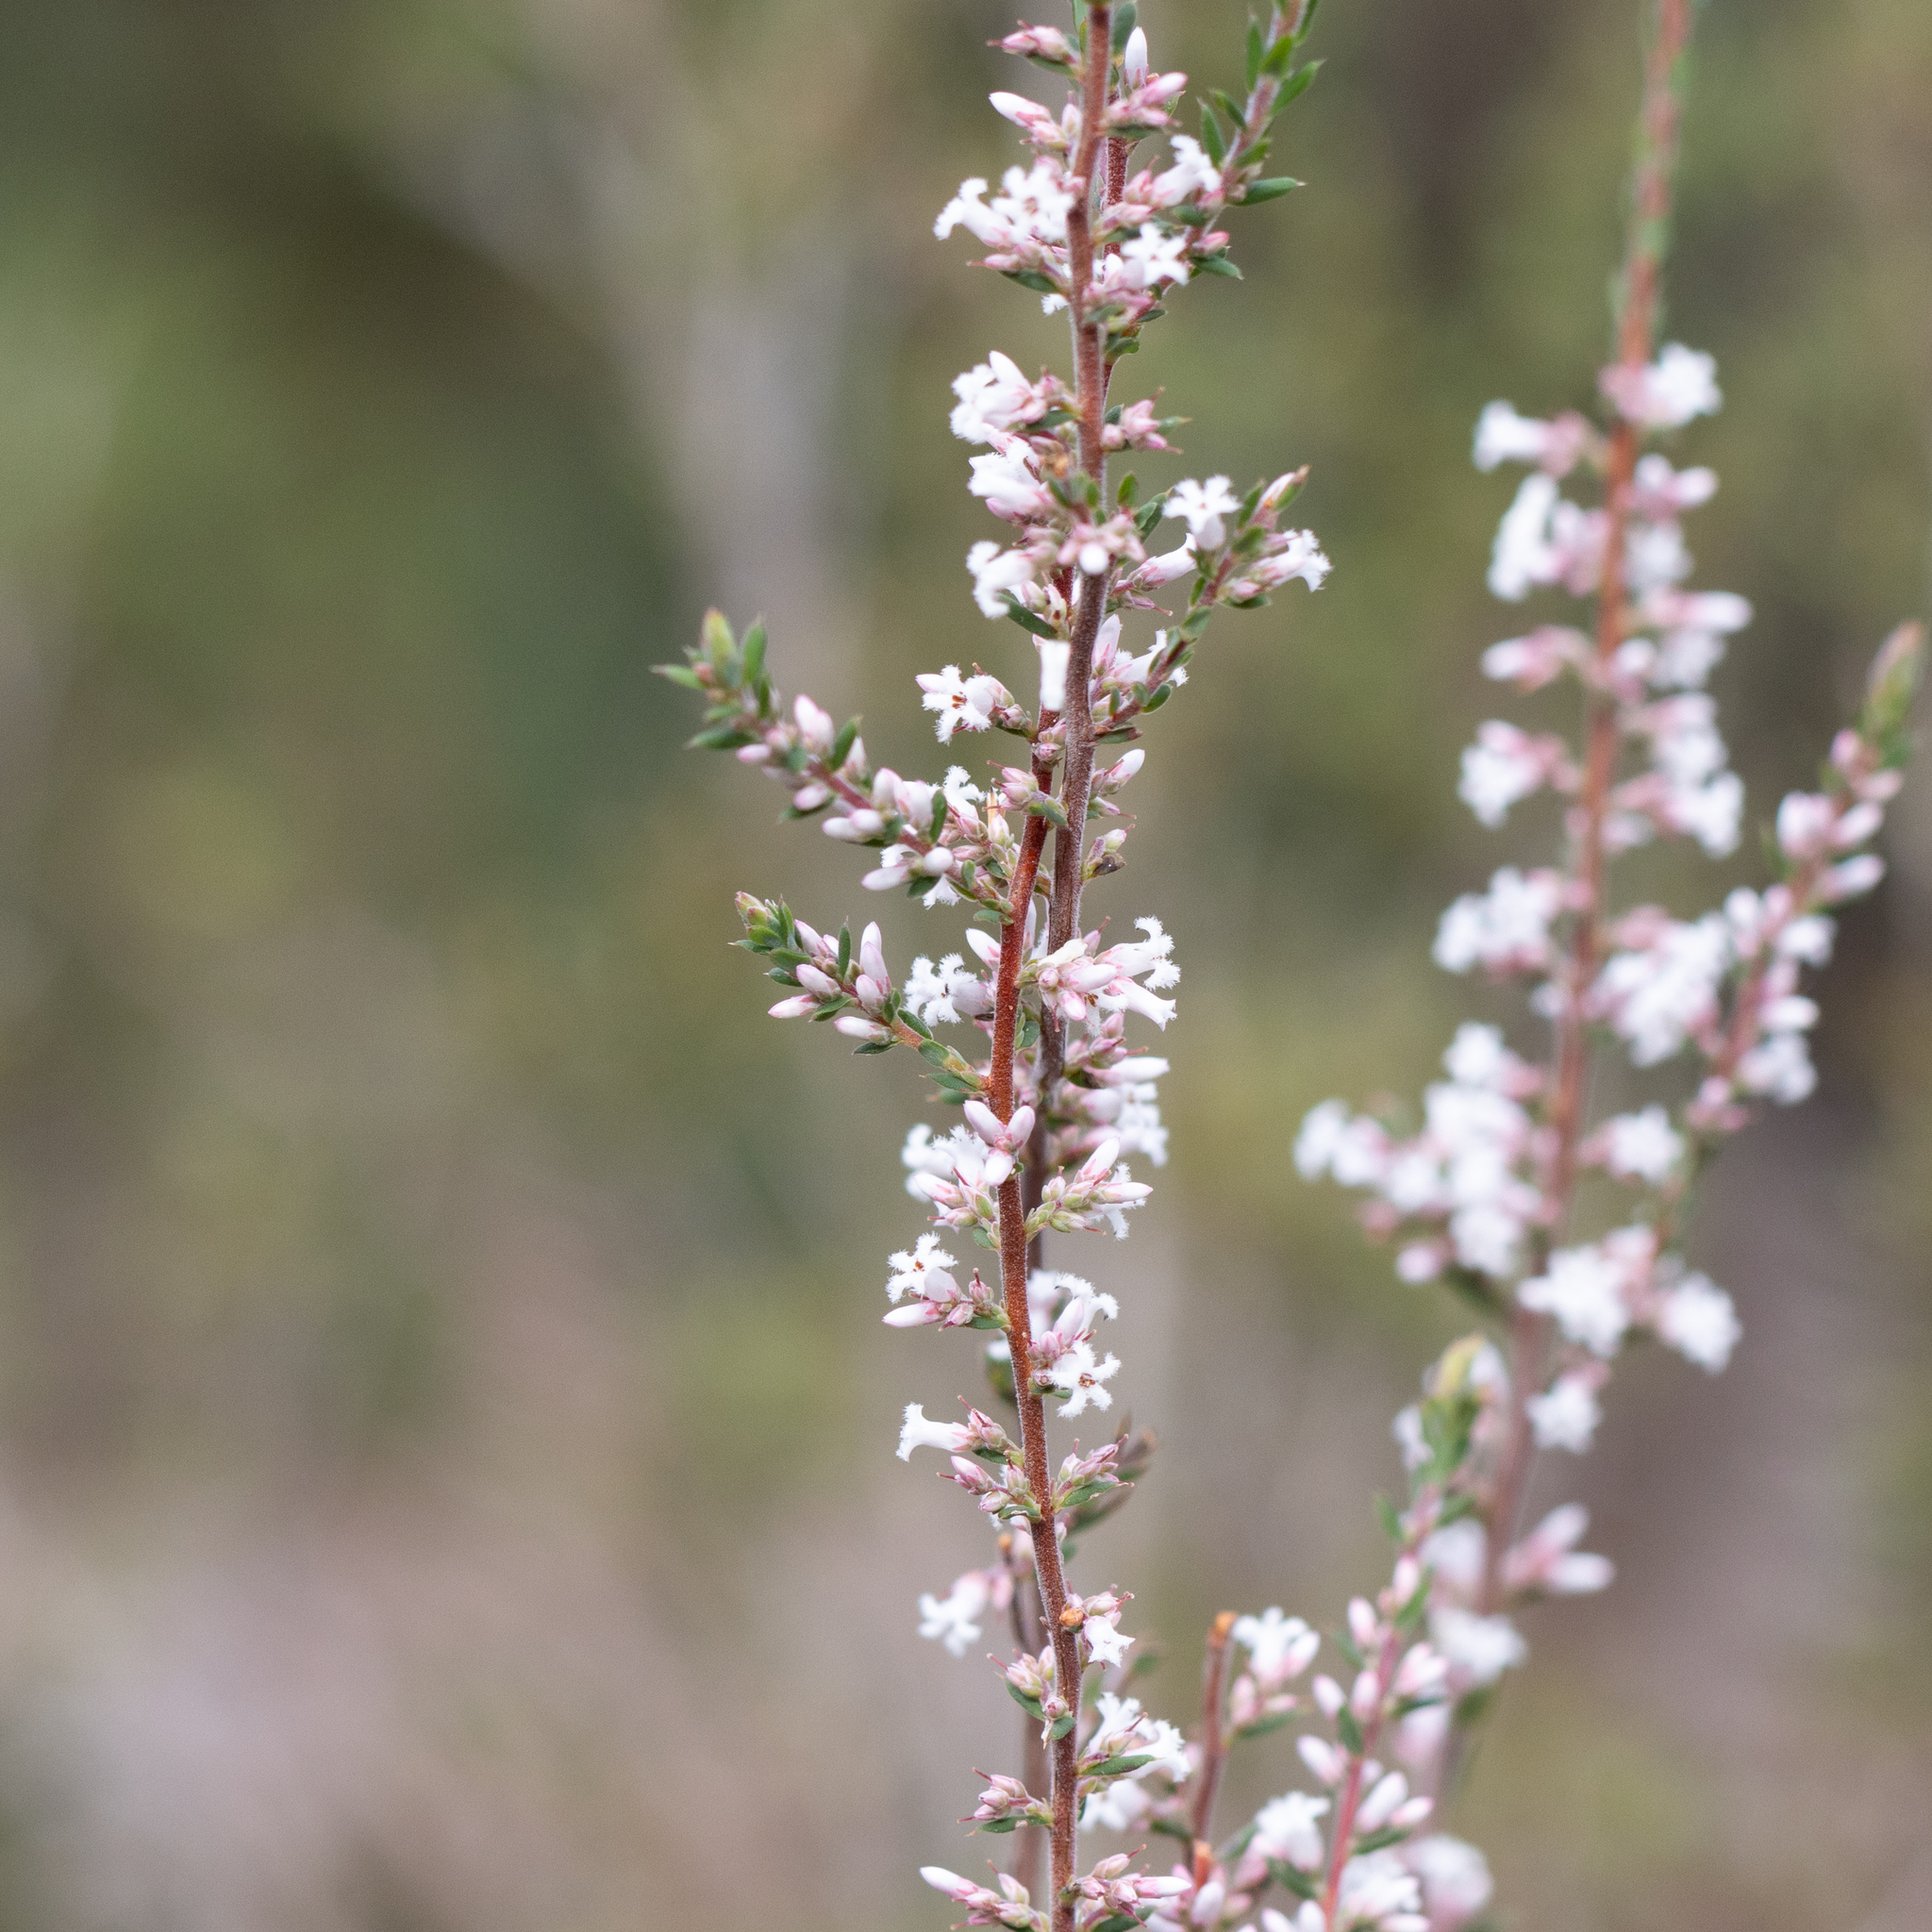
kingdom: Plantae
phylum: Tracheophyta
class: Magnoliopsida
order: Ericales
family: Ericaceae
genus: Styphelia
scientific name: Styphelia ericoides
